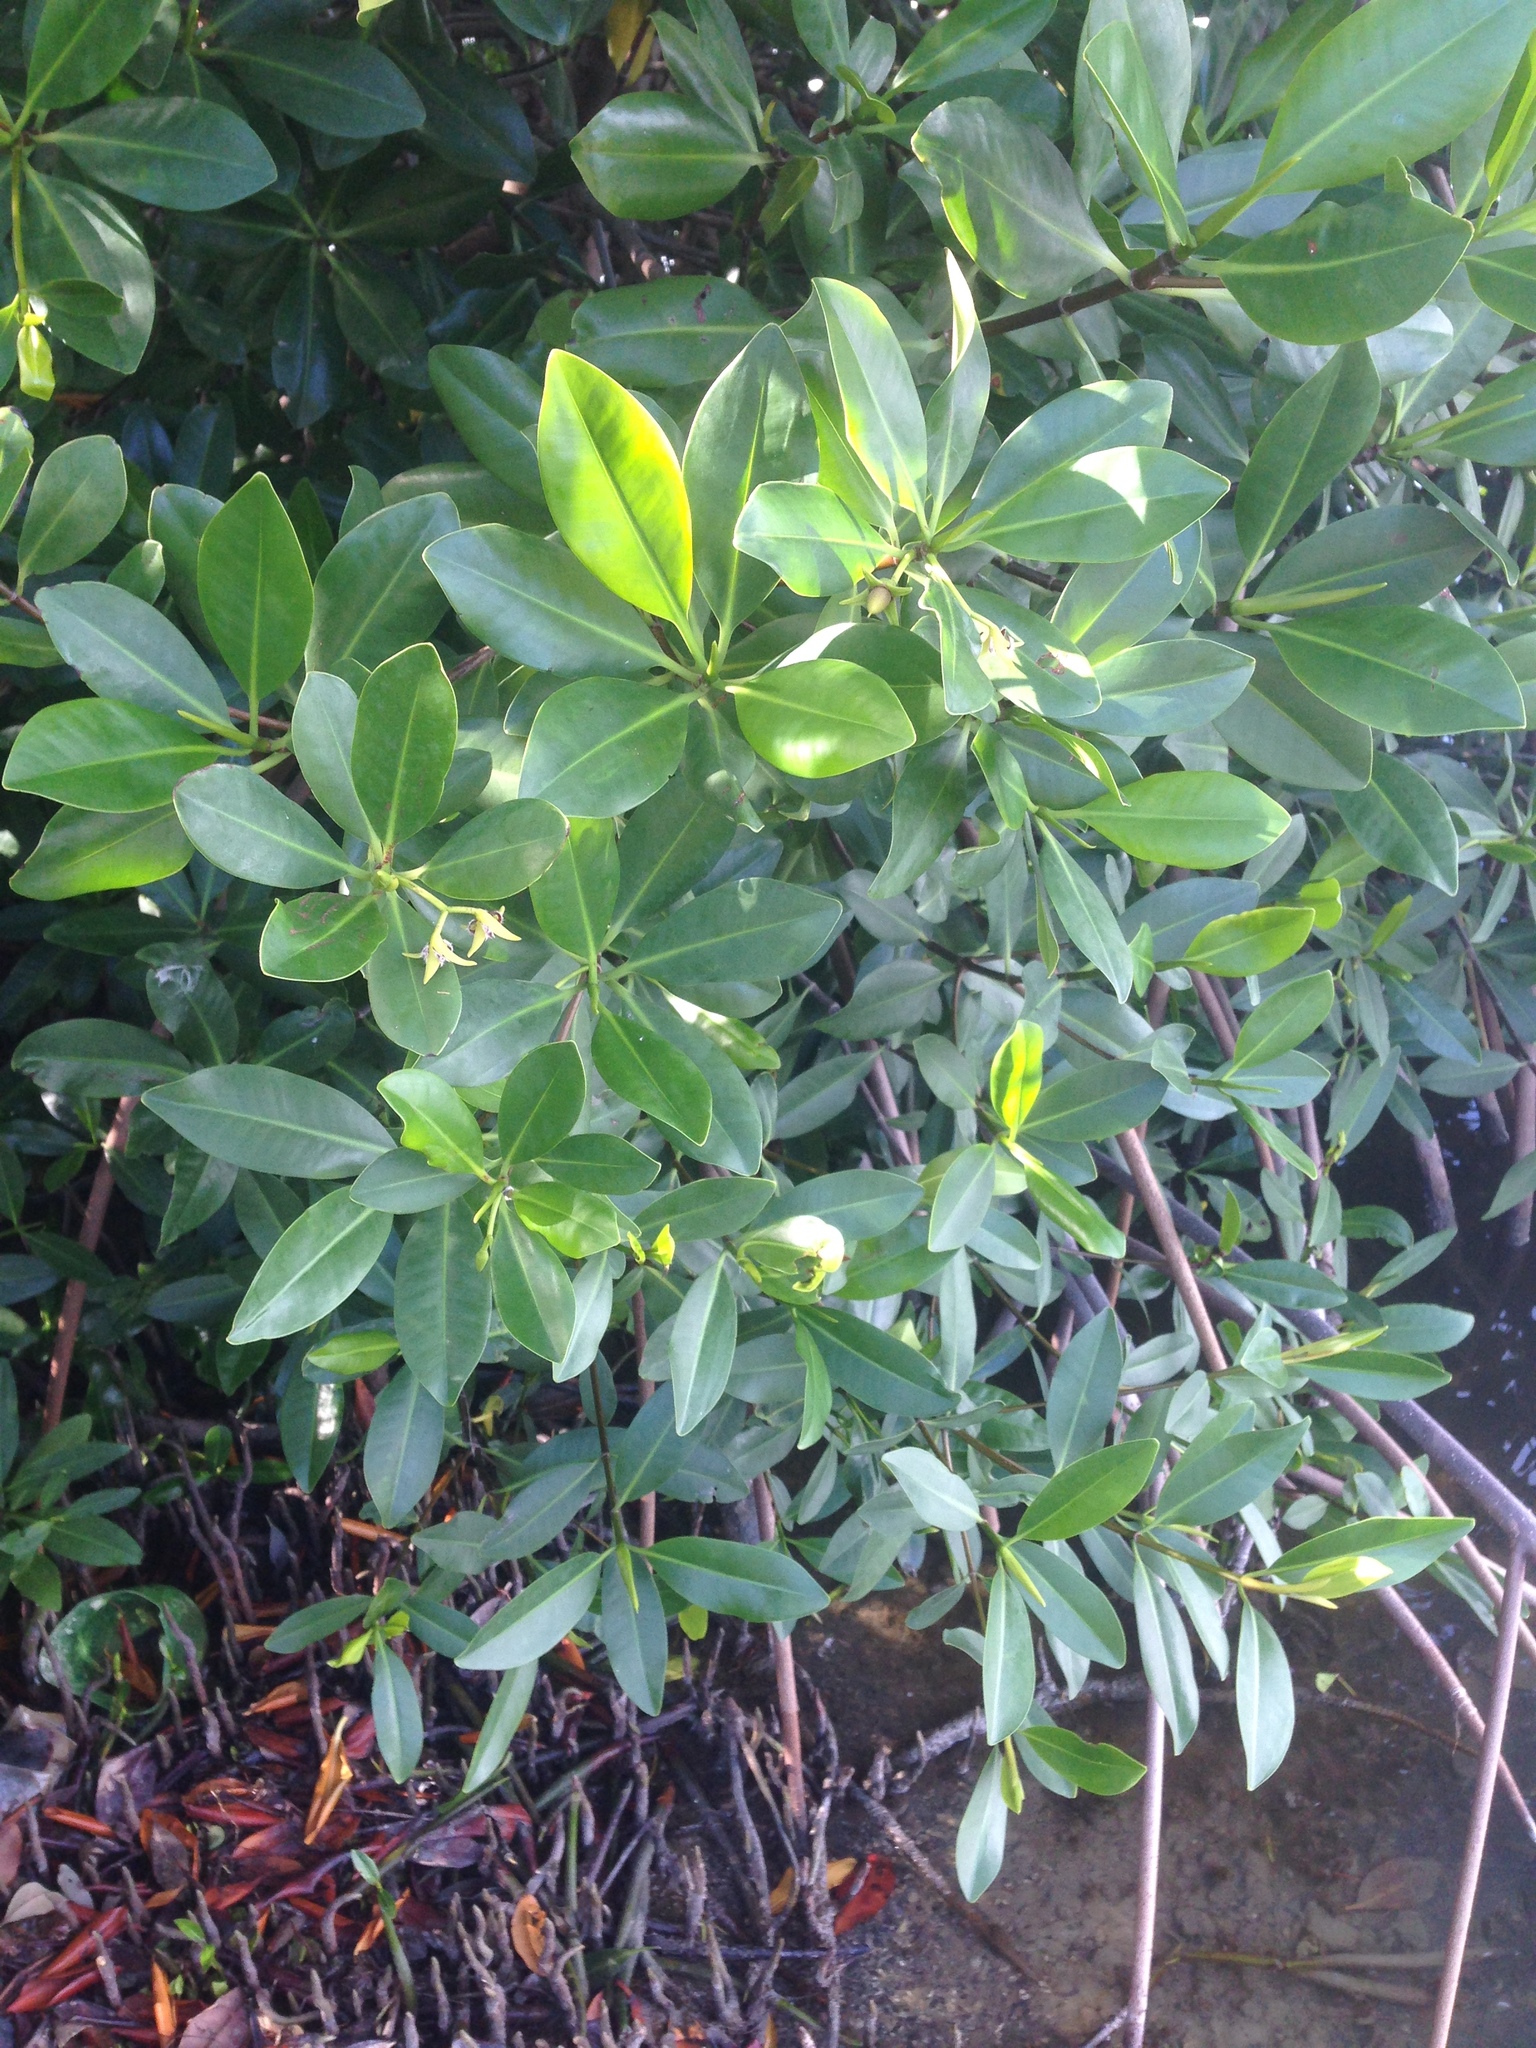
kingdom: Plantae
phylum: Tracheophyta
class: Magnoliopsida
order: Malpighiales
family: Rhizophoraceae
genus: Rhizophora
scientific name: Rhizophora mangle
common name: Red mangrove
